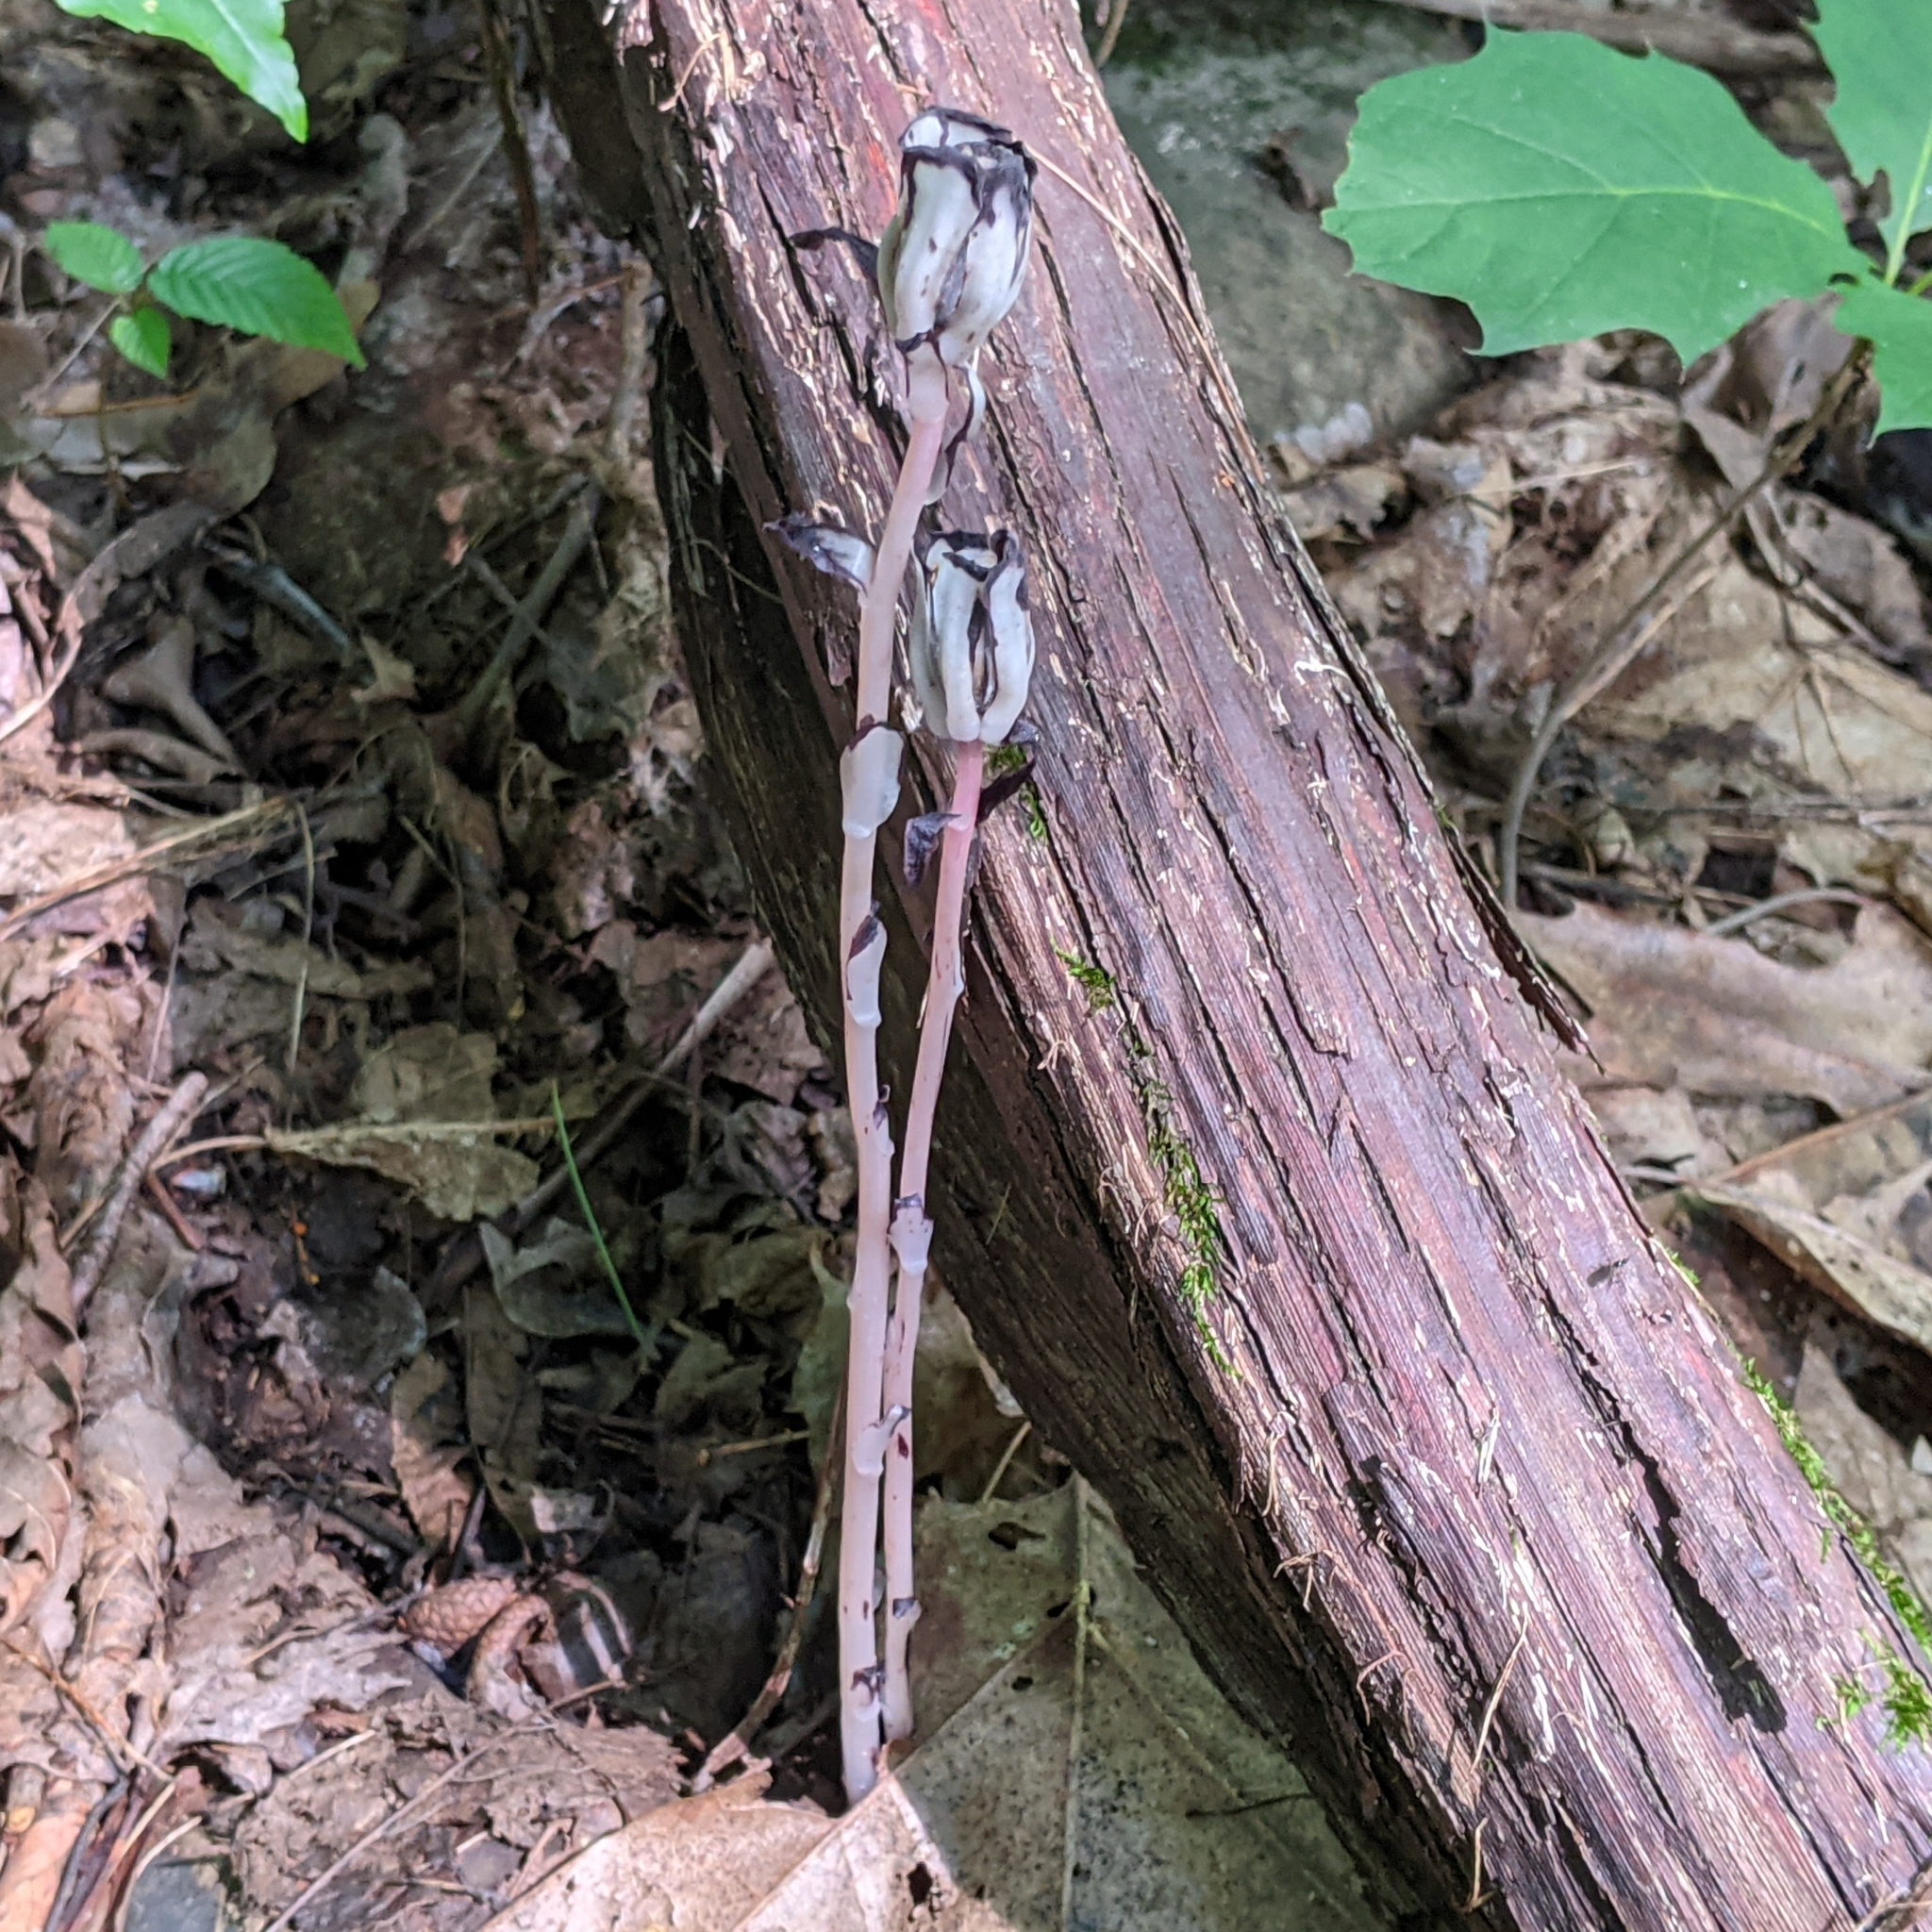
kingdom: Plantae
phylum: Tracheophyta
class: Magnoliopsida
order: Ericales
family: Ericaceae
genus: Monotropa
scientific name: Monotropa uniflora
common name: Convulsion root
